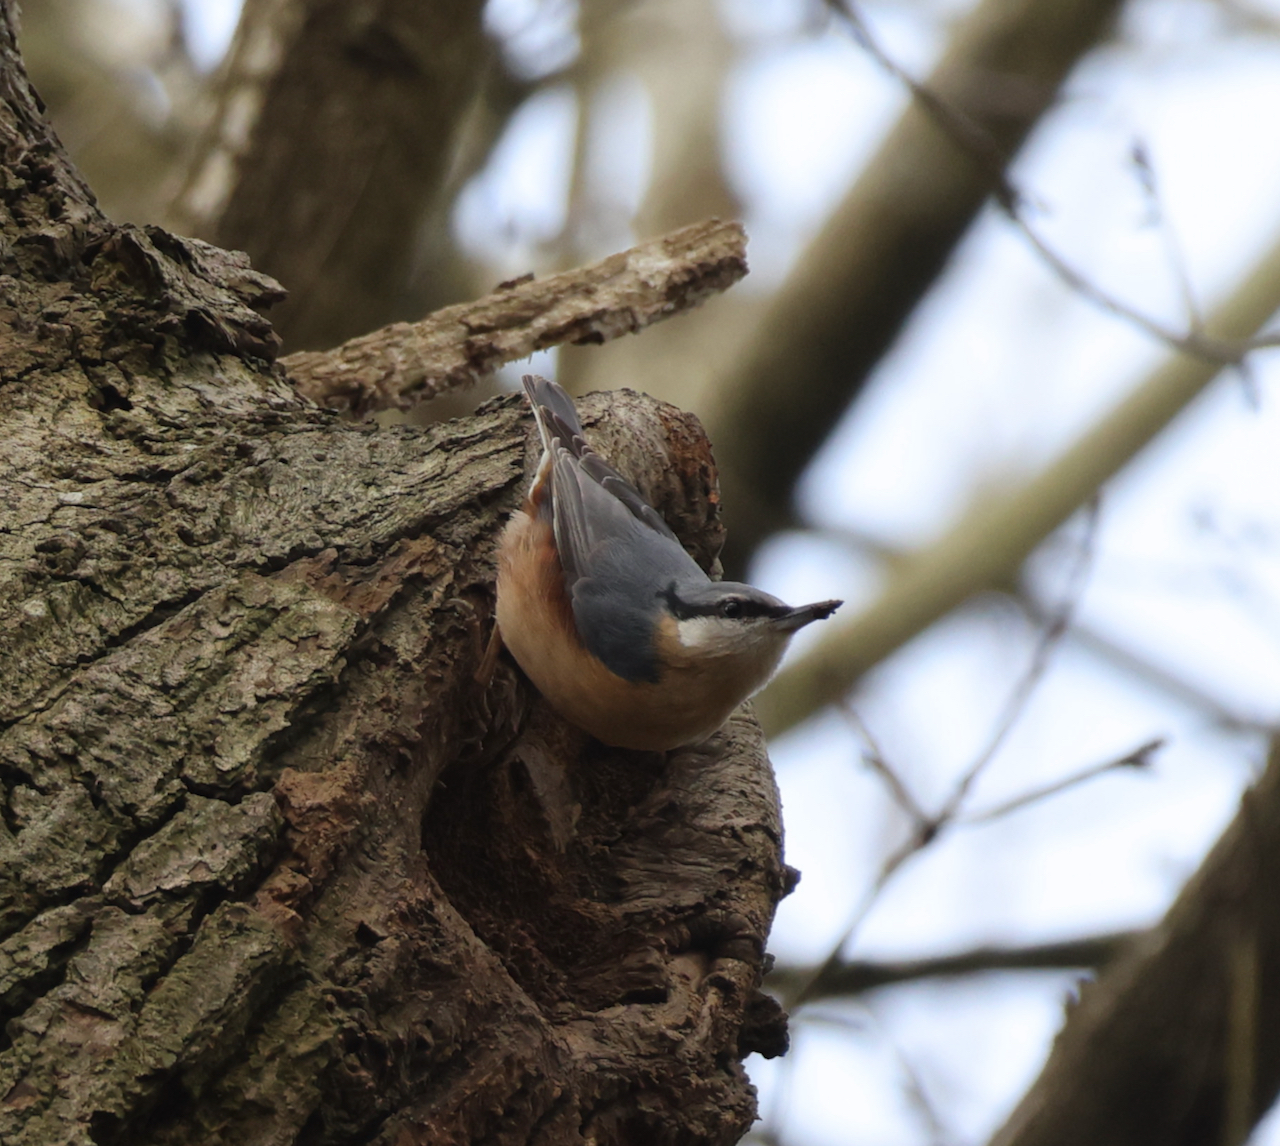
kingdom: Animalia
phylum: Chordata
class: Aves
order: Passeriformes
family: Sittidae
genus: Sitta
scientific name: Sitta europaea
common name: Eurasian nuthatch
